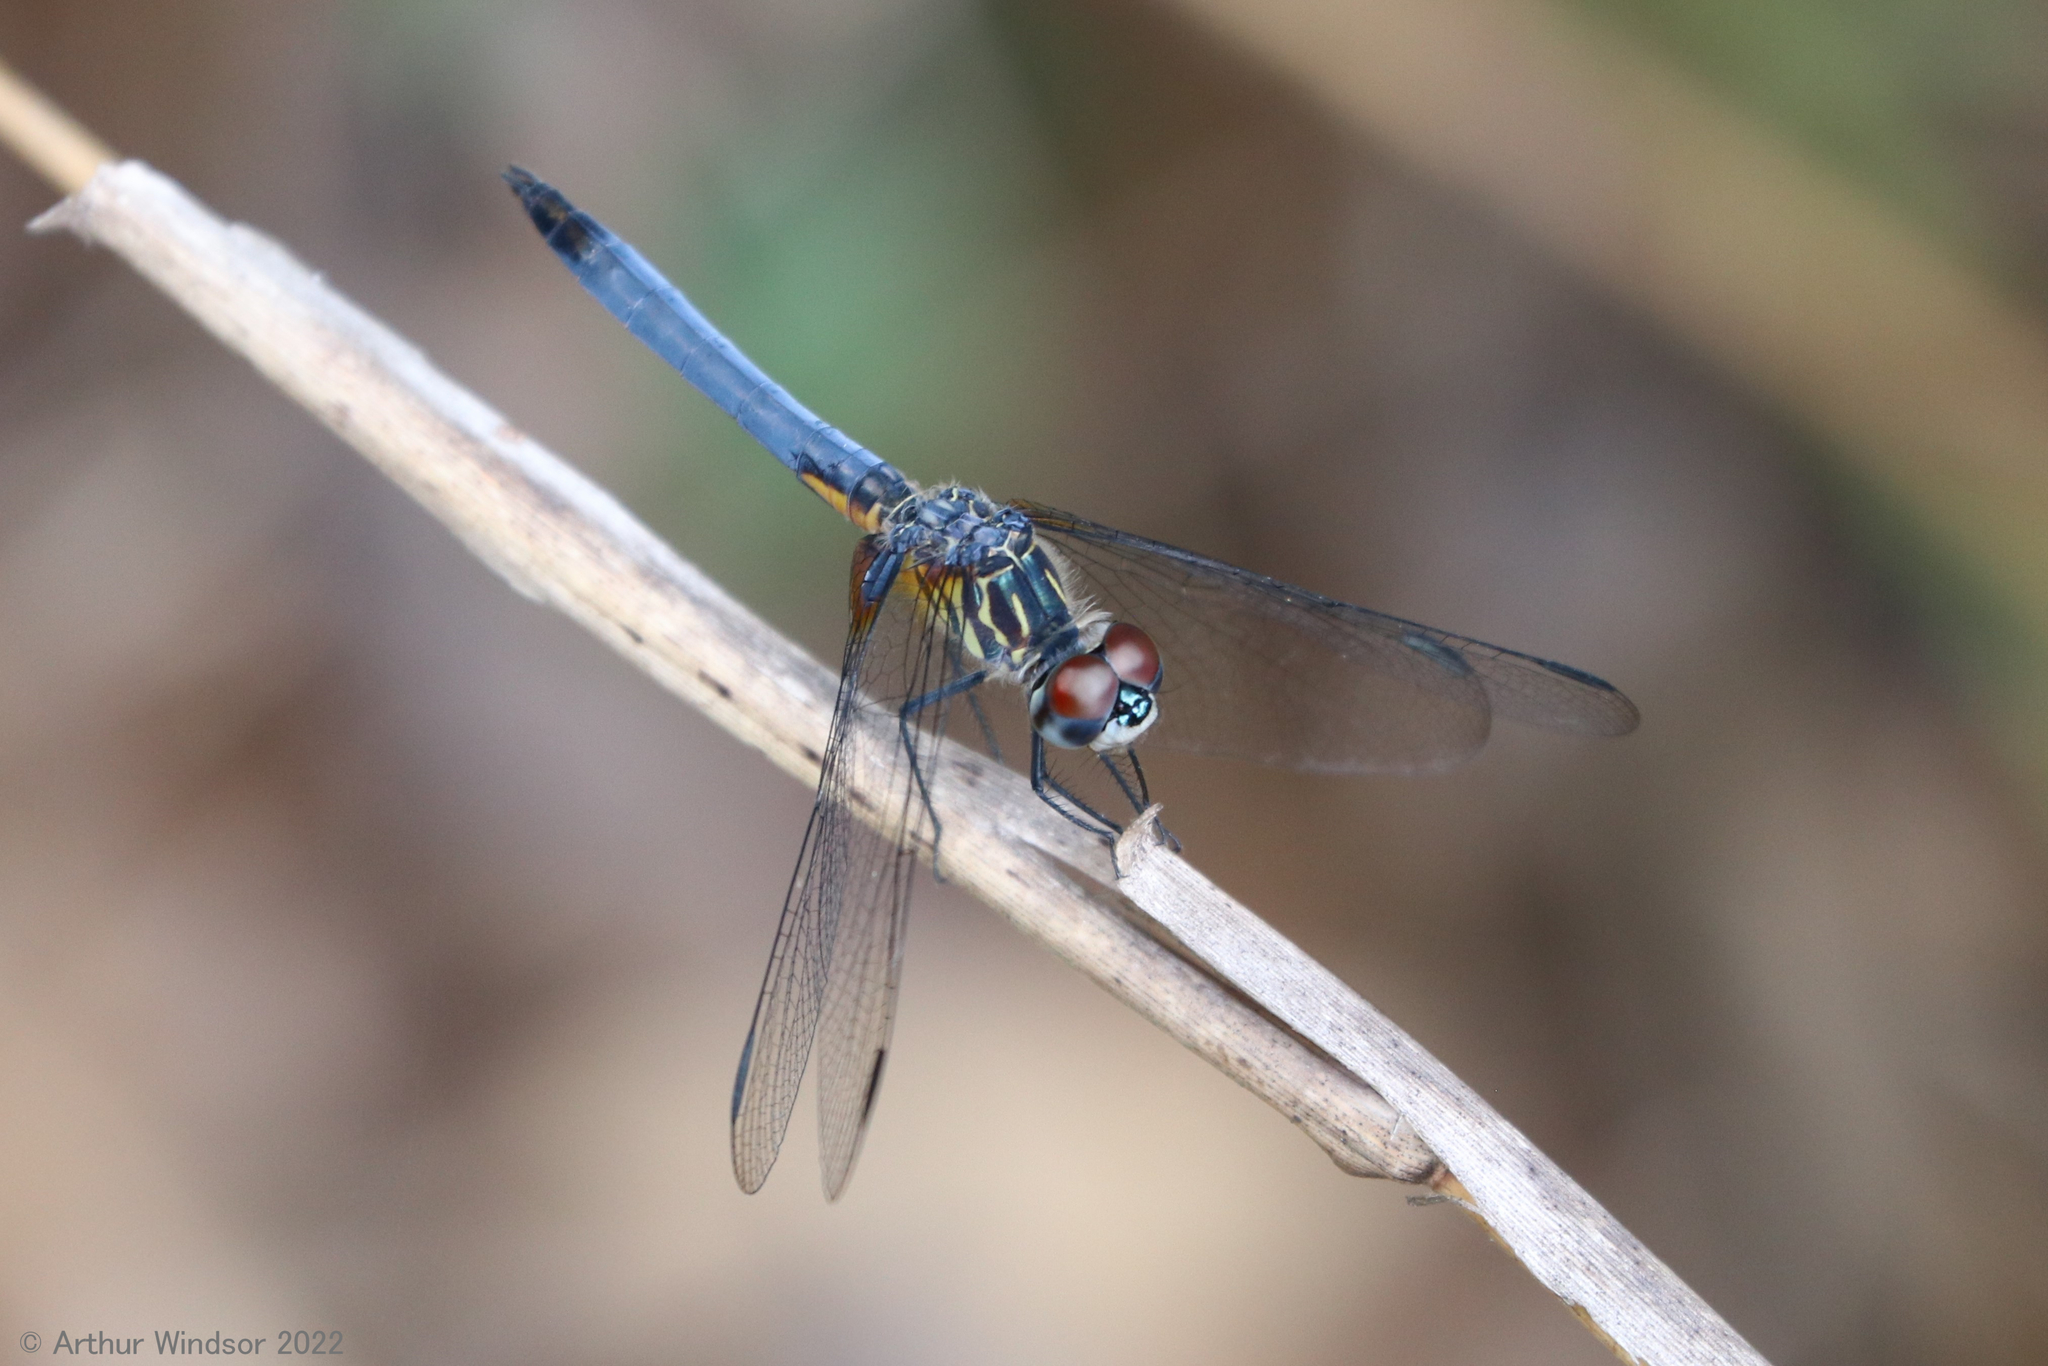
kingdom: Animalia
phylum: Arthropoda
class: Insecta
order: Odonata
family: Libellulidae
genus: Pachydiplax
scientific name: Pachydiplax longipennis
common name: Blue dasher
